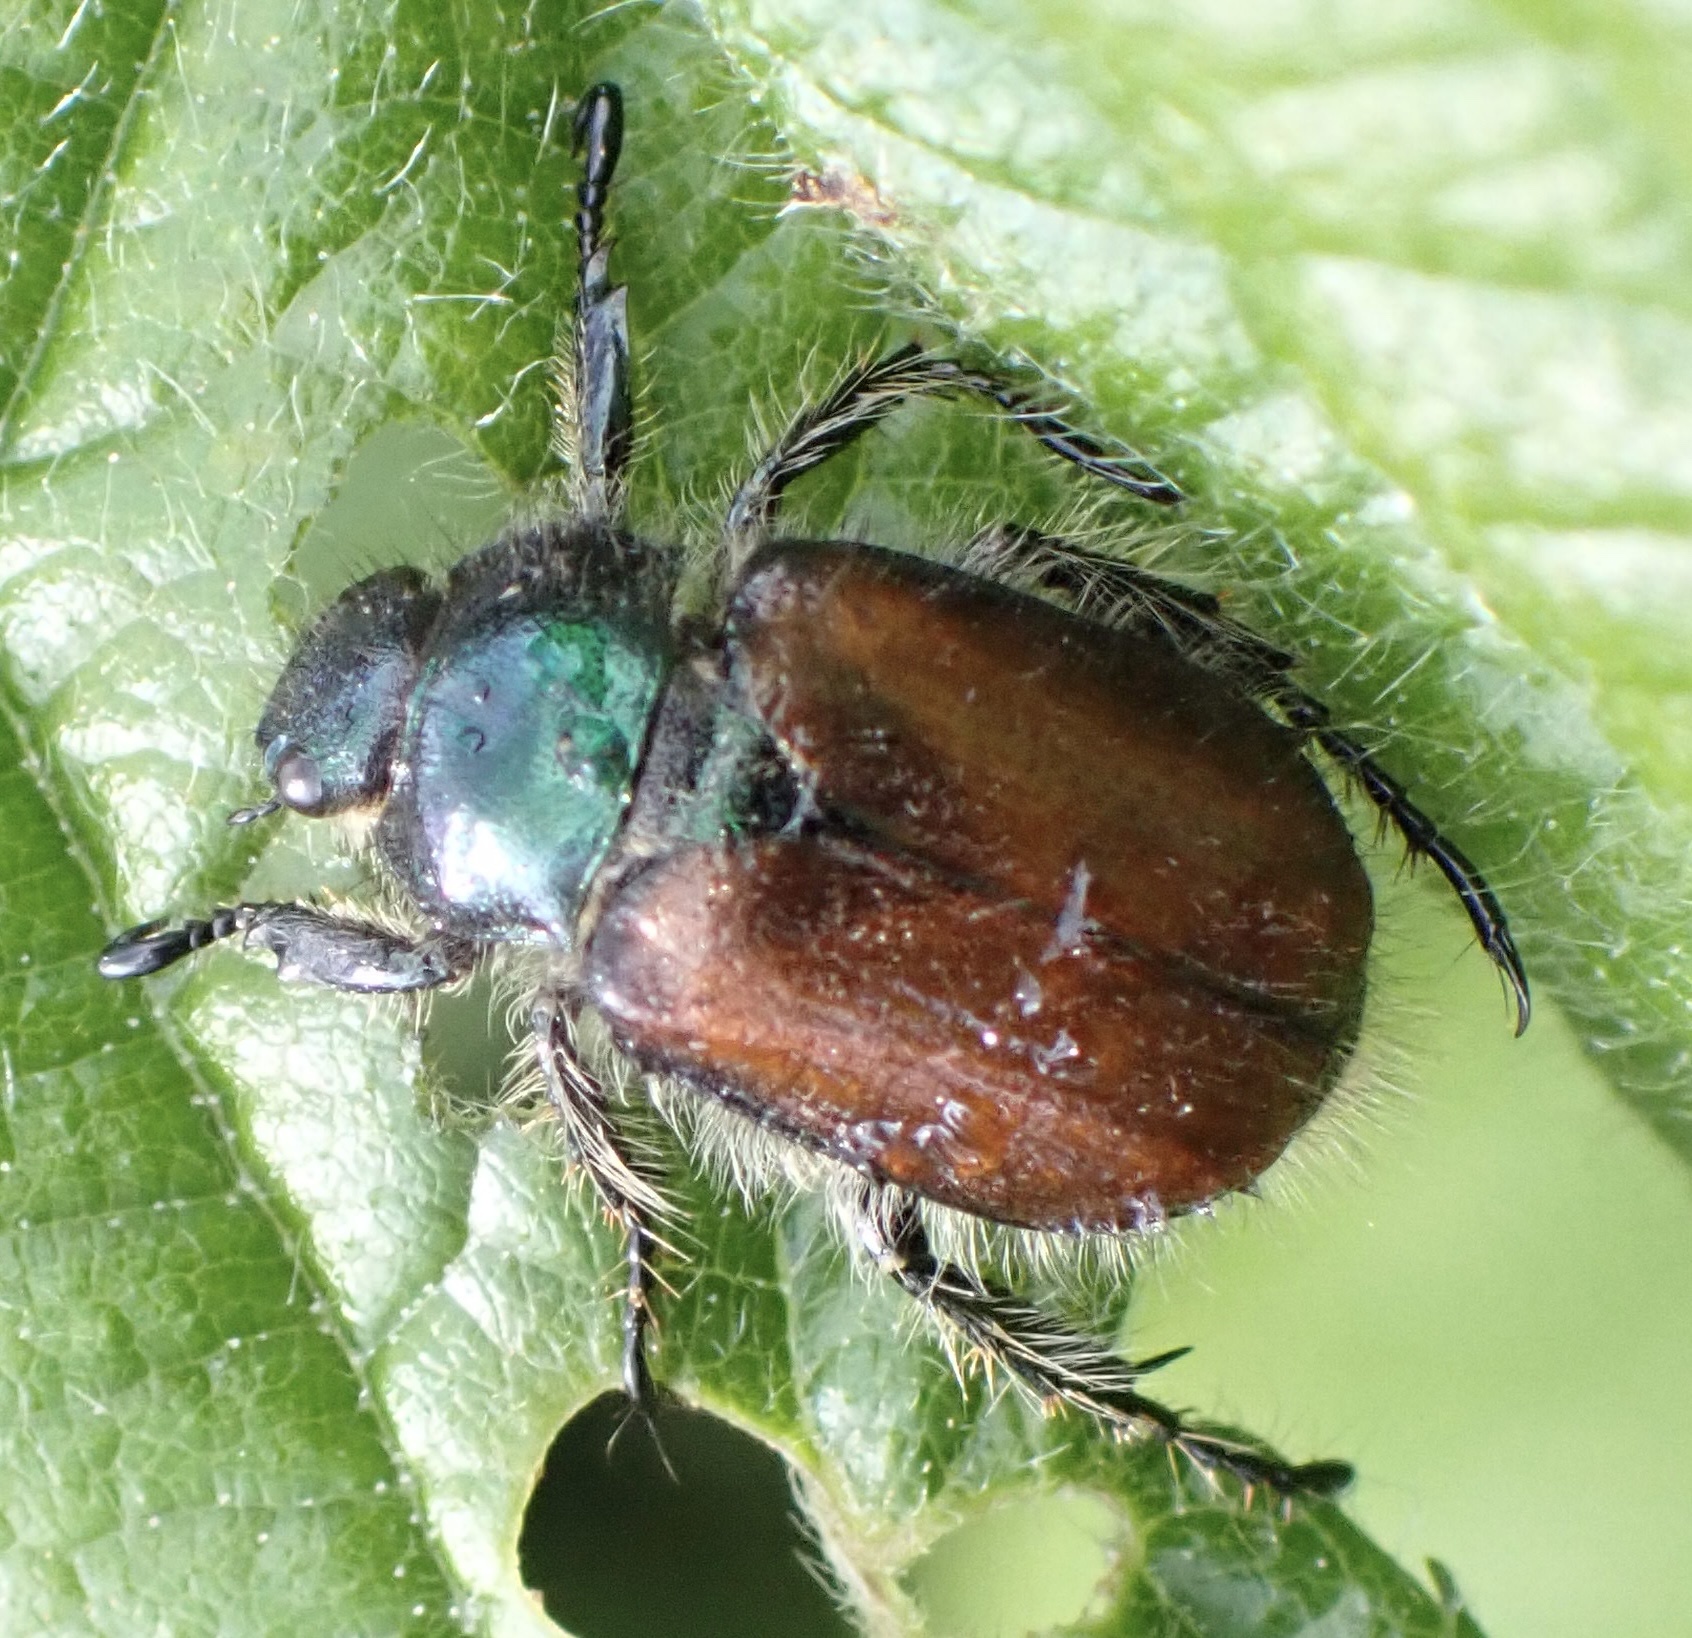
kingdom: Animalia
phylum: Arthropoda
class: Insecta
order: Coleoptera
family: Scarabaeidae
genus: Phyllopertha
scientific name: Phyllopertha horticola
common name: Garden chafer
